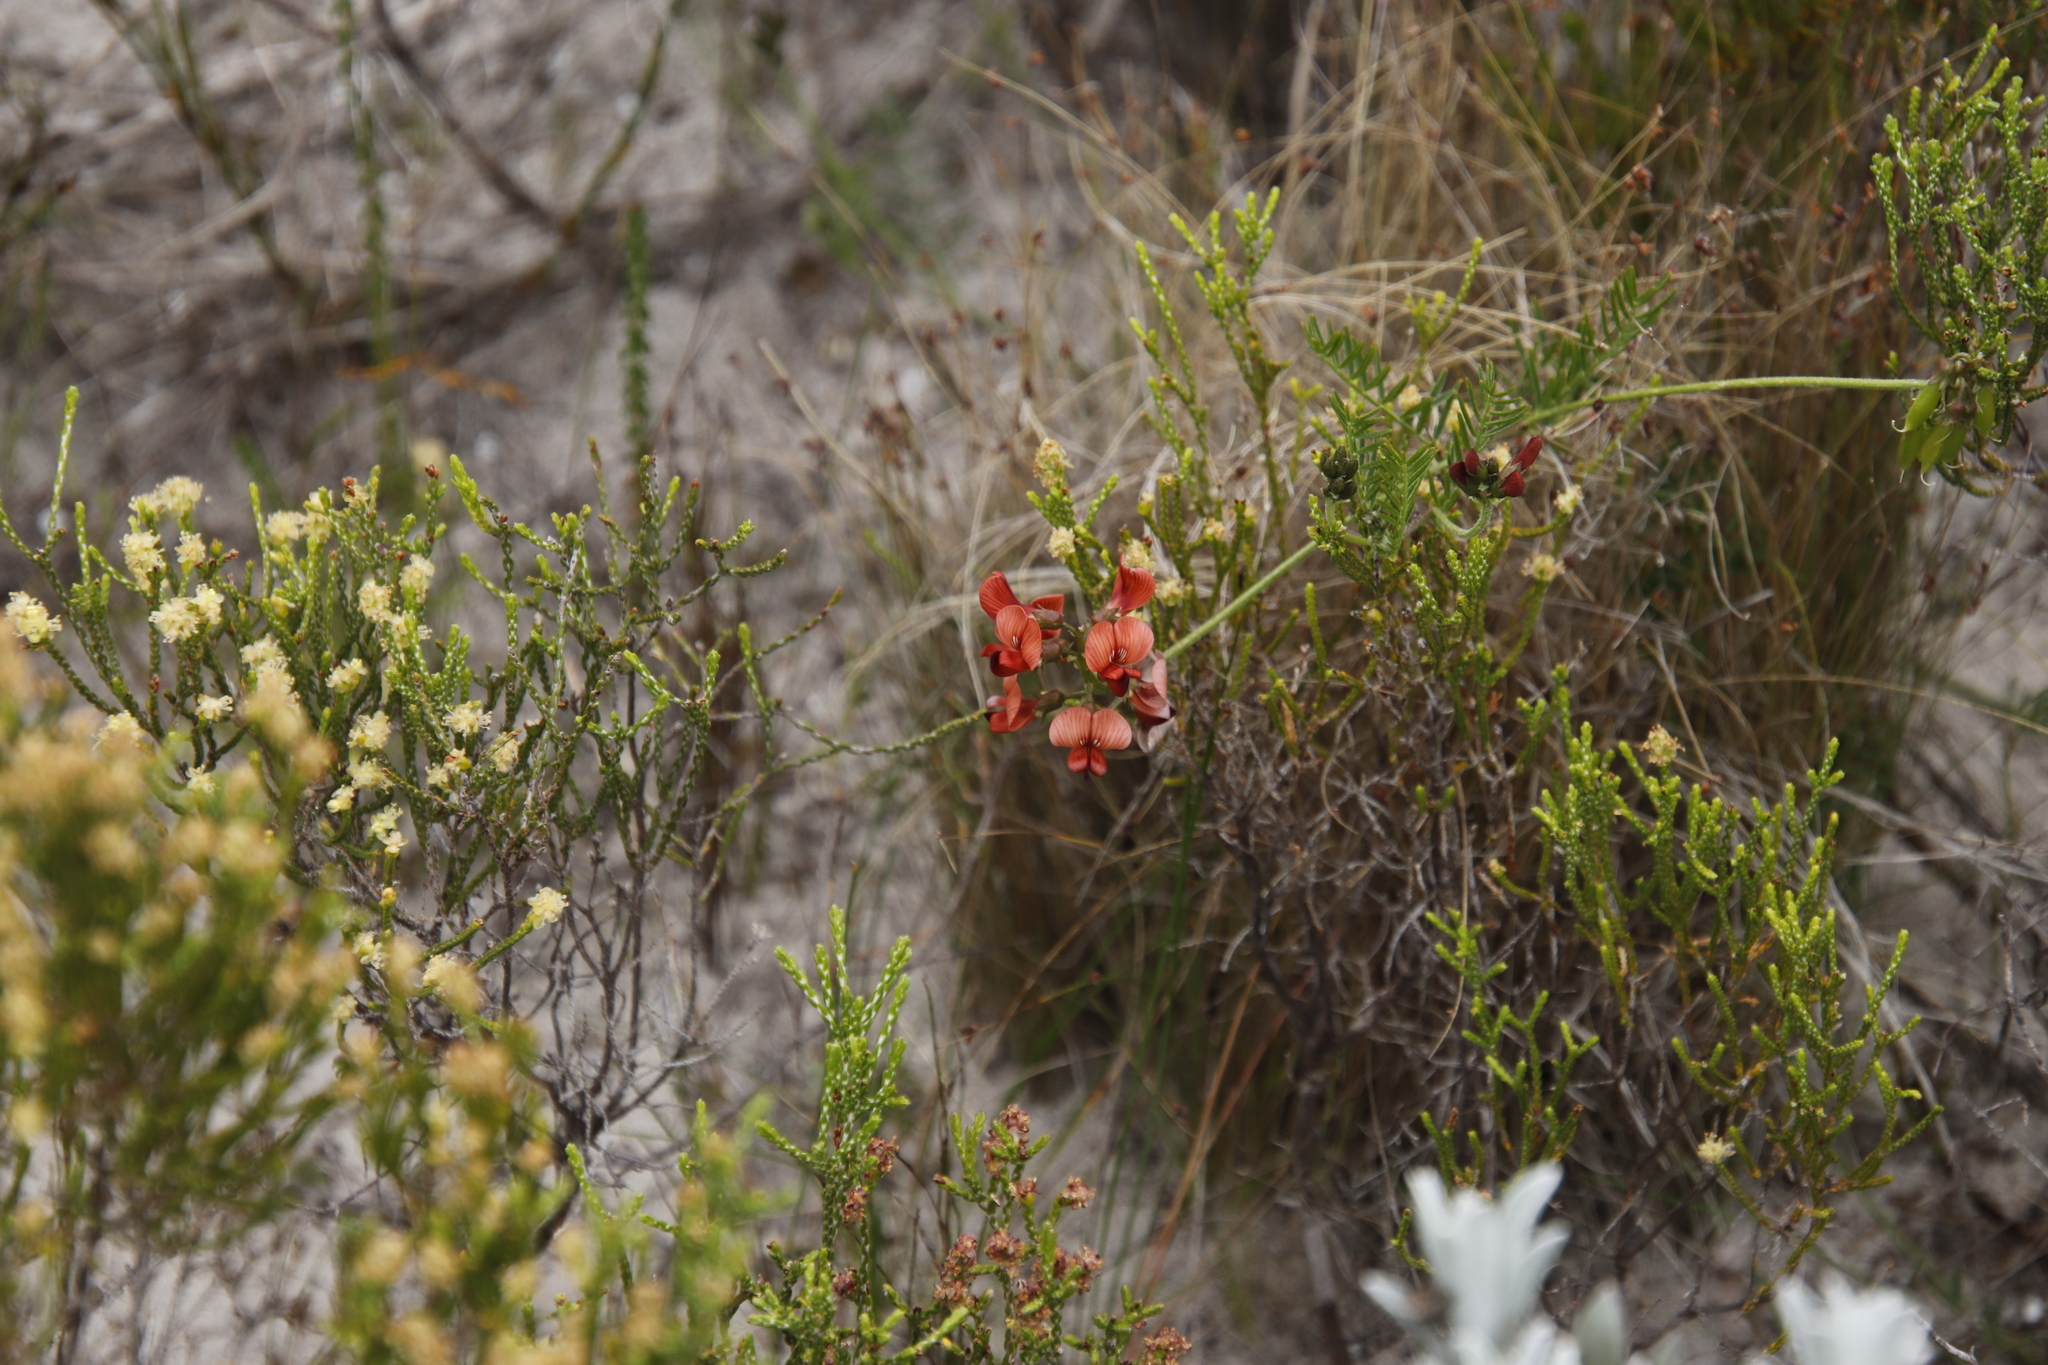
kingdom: Plantae
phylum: Tracheophyta
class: Magnoliopsida
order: Fabales
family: Fabaceae
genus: Lessertia
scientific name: Lessertia miniata
